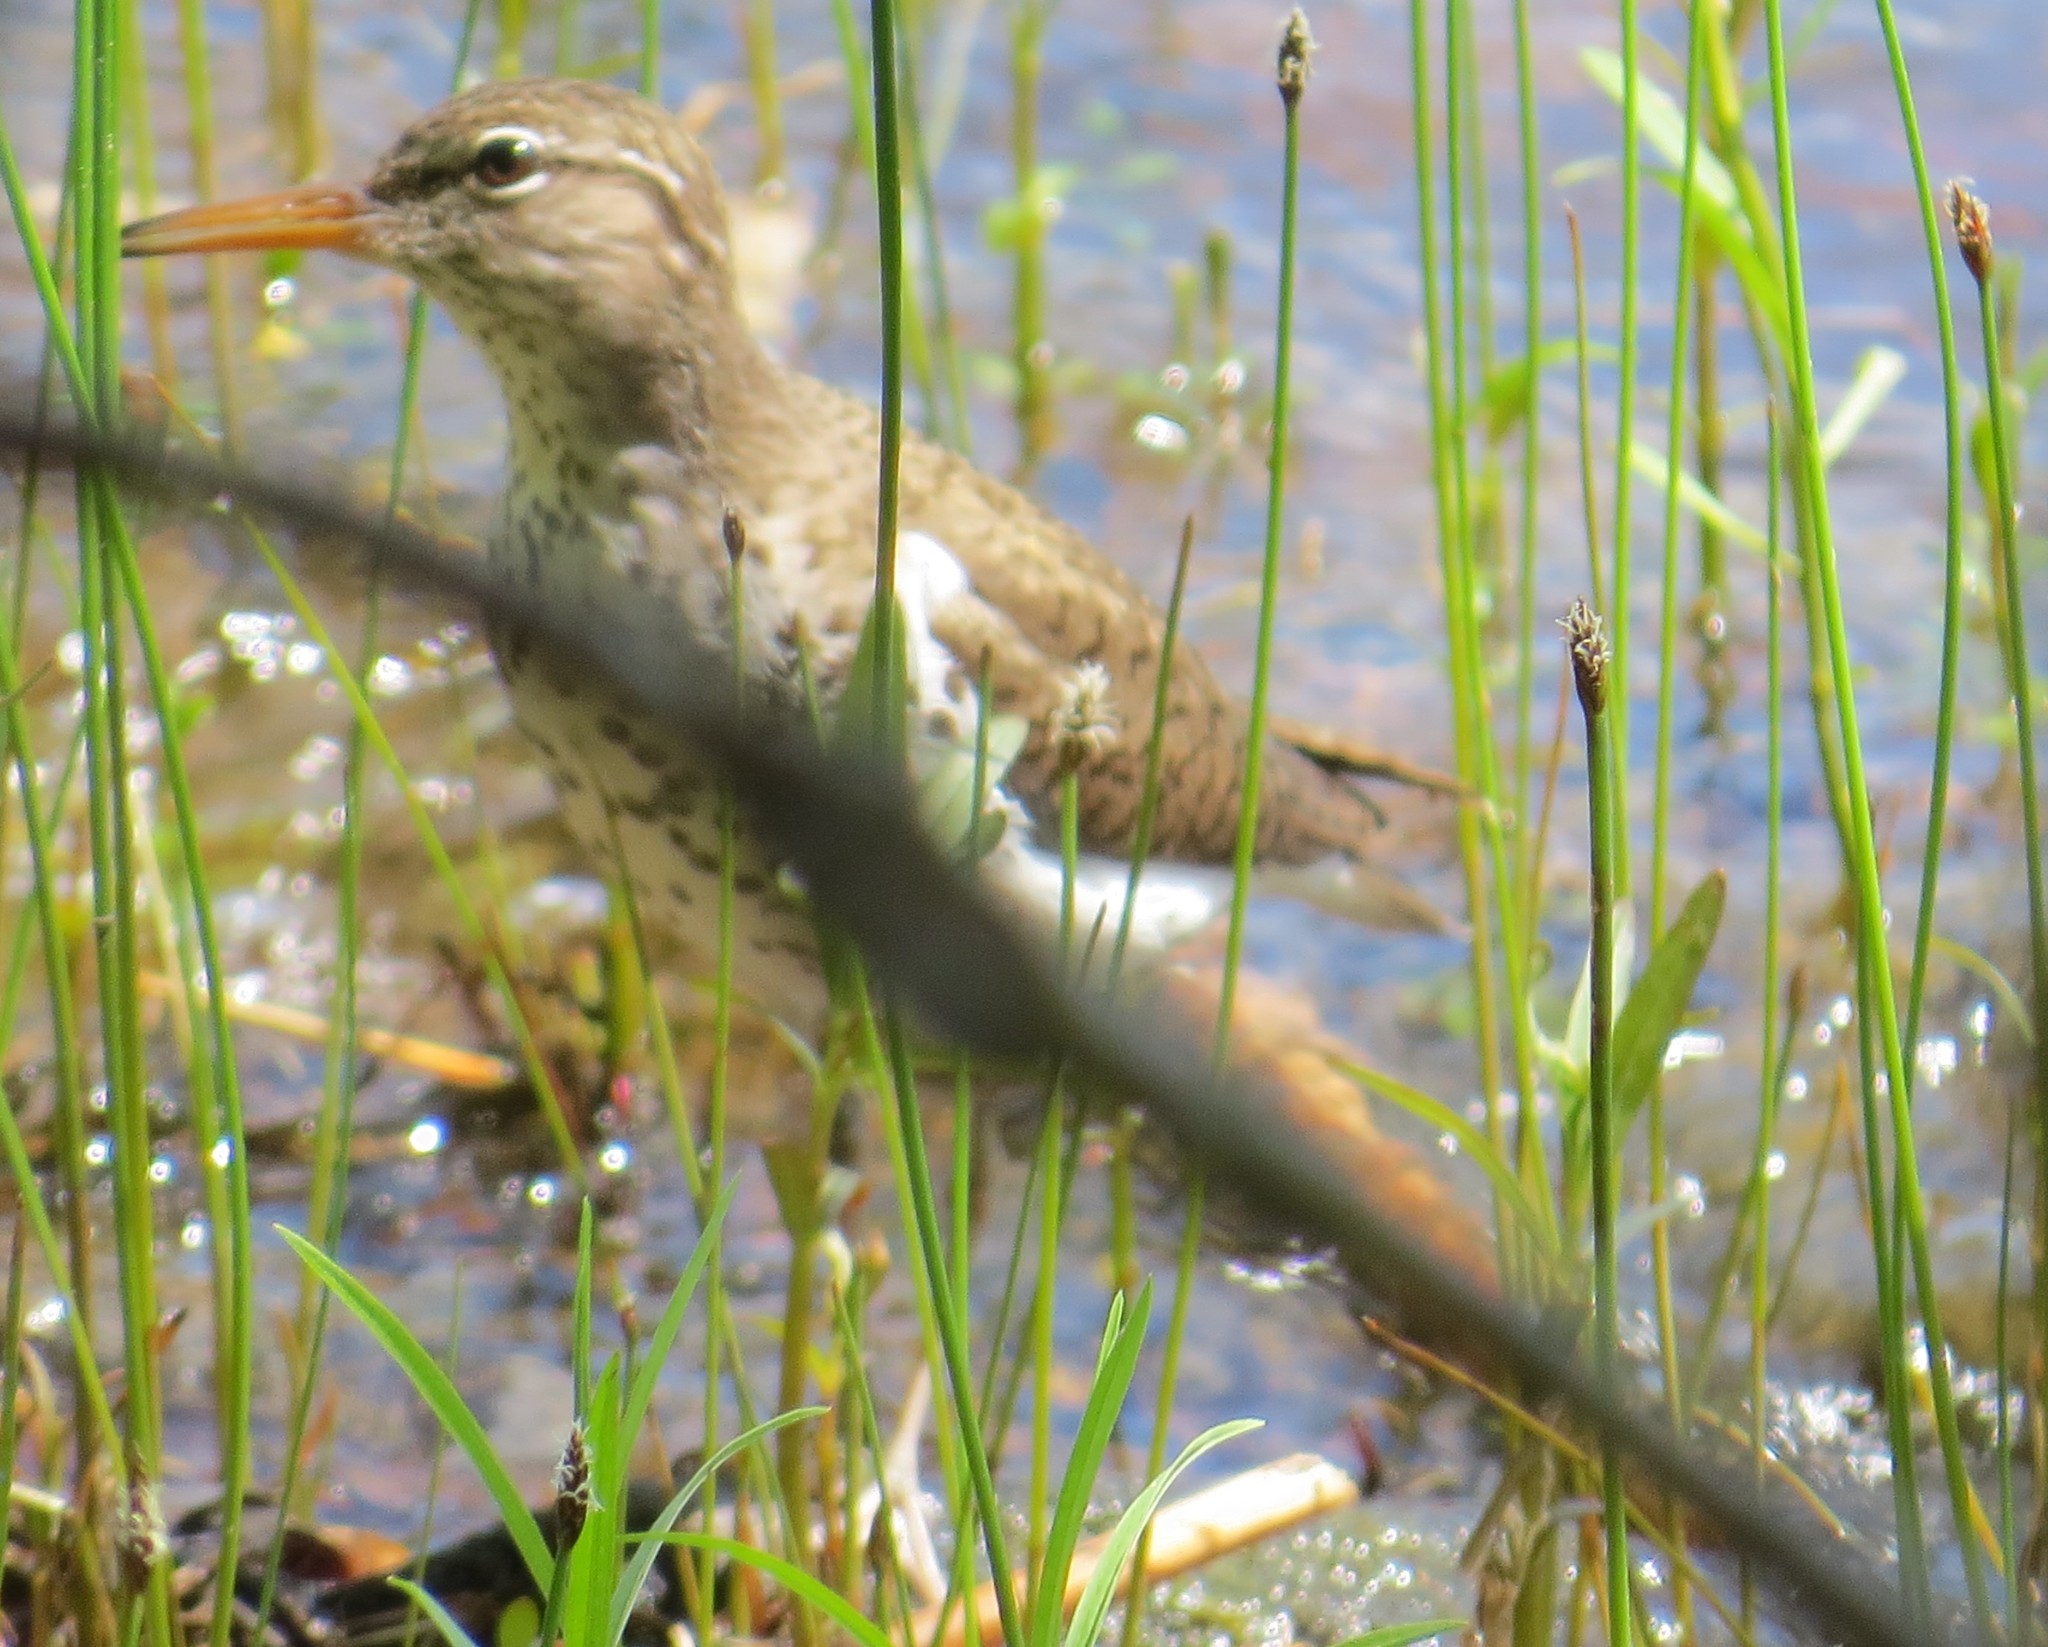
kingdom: Animalia
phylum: Chordata
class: Aves
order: Charadriiformes
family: Scolopacidae
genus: Actitis
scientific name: Actitis macularius
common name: Spotted sandpiper
